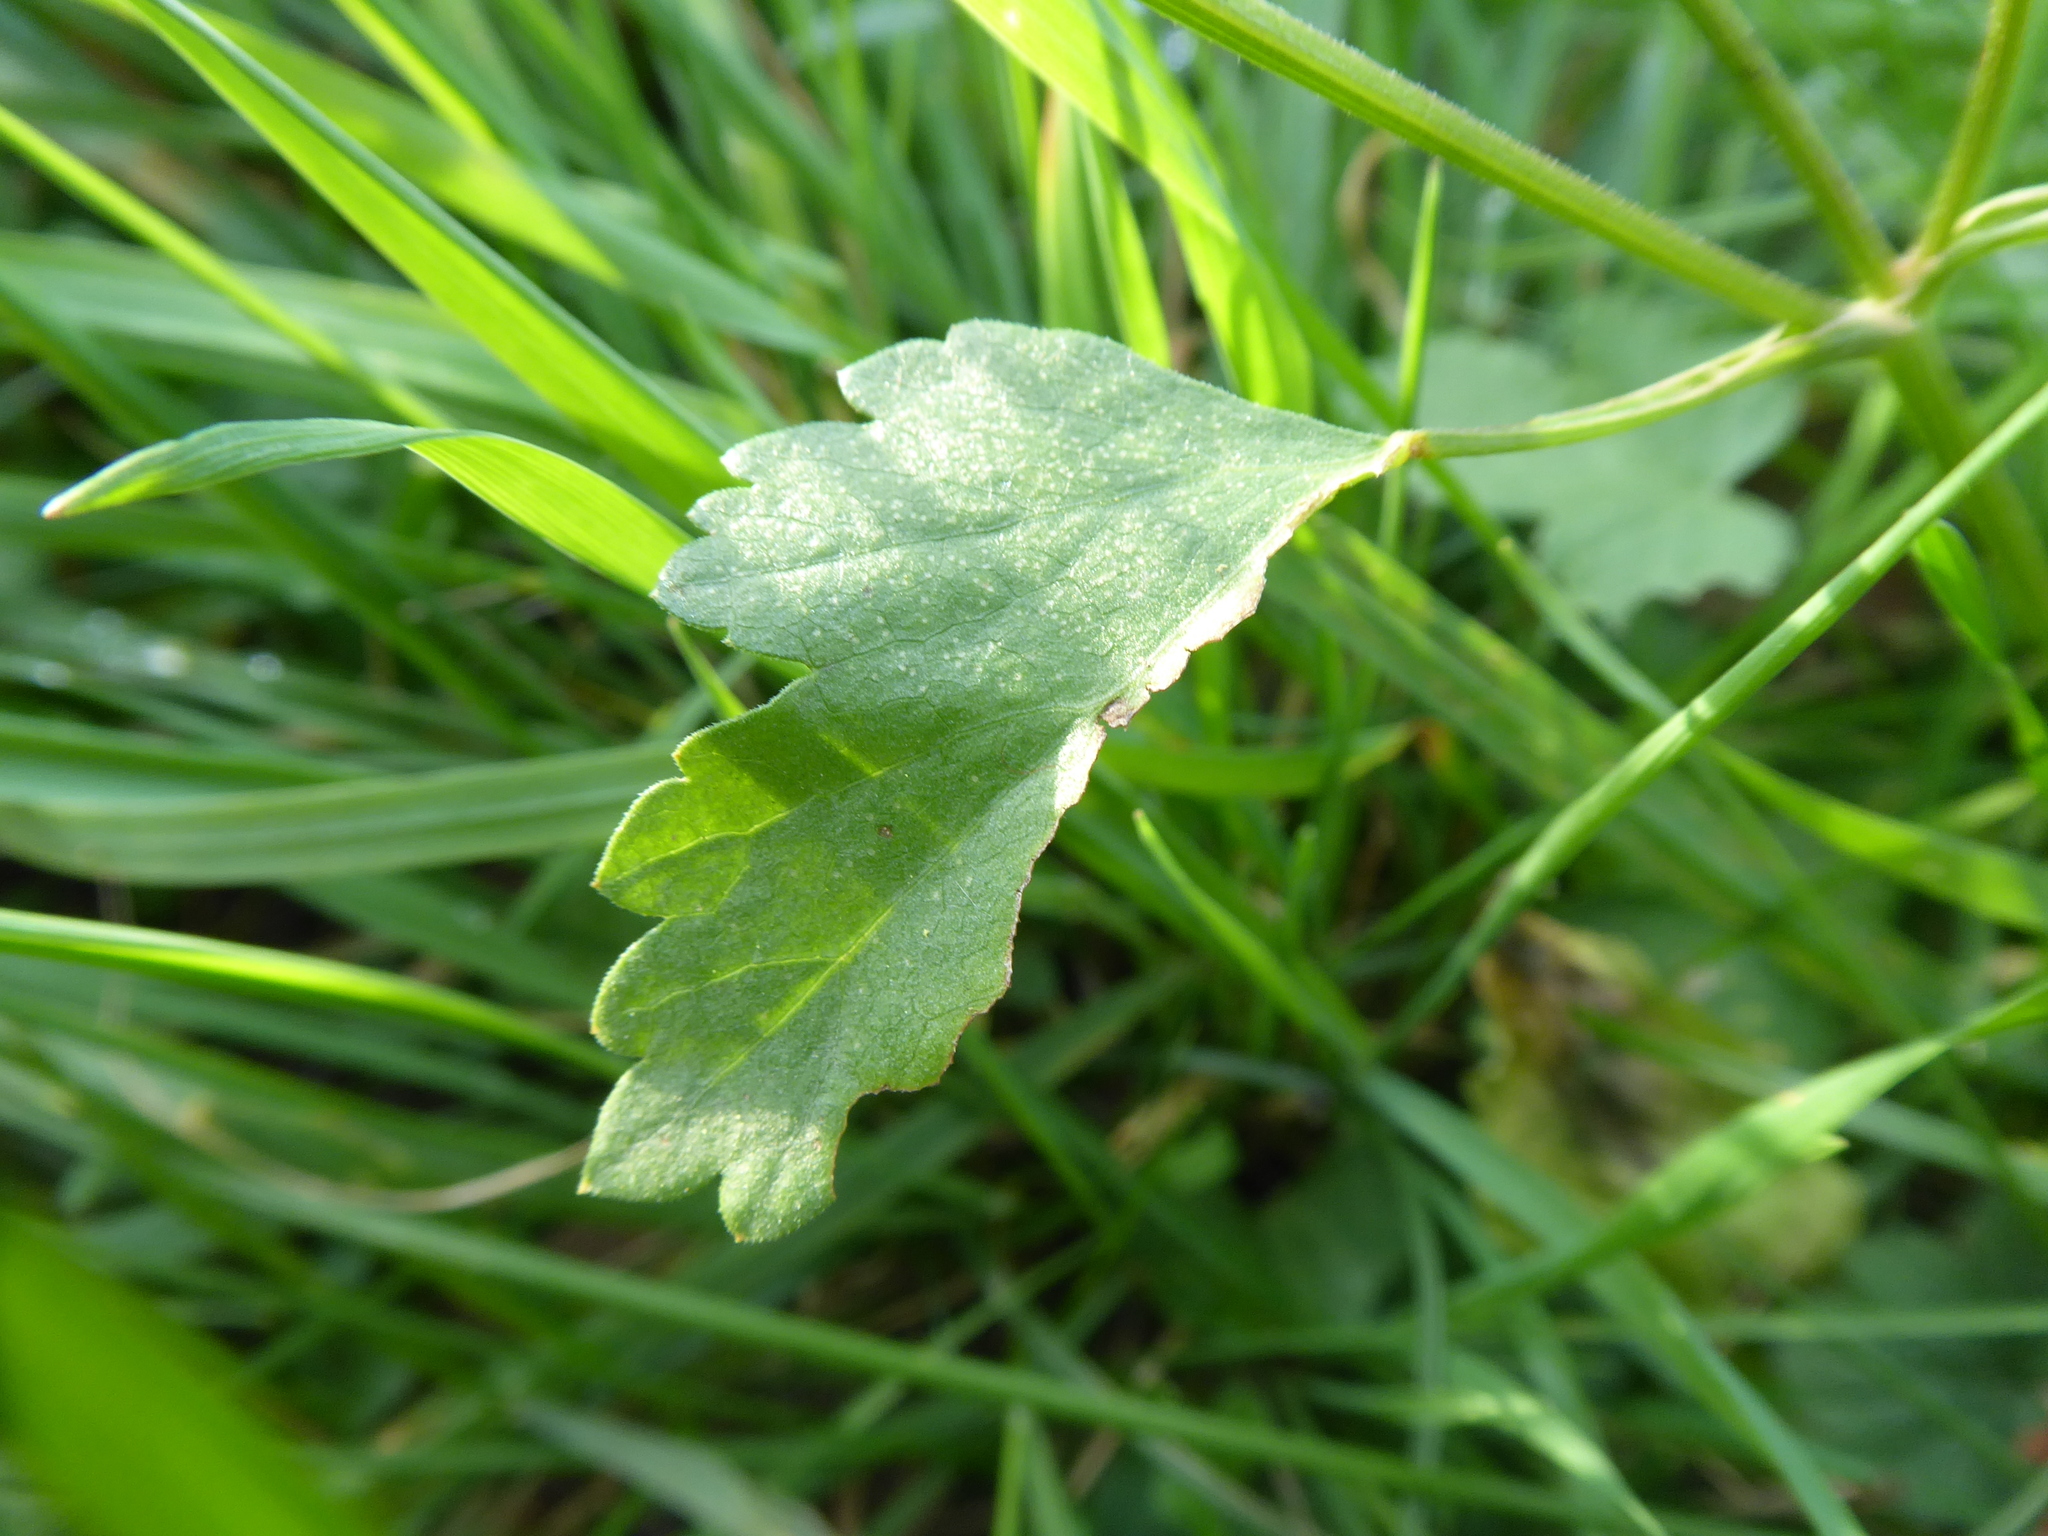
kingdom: Plantae
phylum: Tracheophyta
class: Magnoliopsida
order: Apiales
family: Apiaceae
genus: Pastinaca
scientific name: Pastinaca sativa
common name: Wild parsnip
